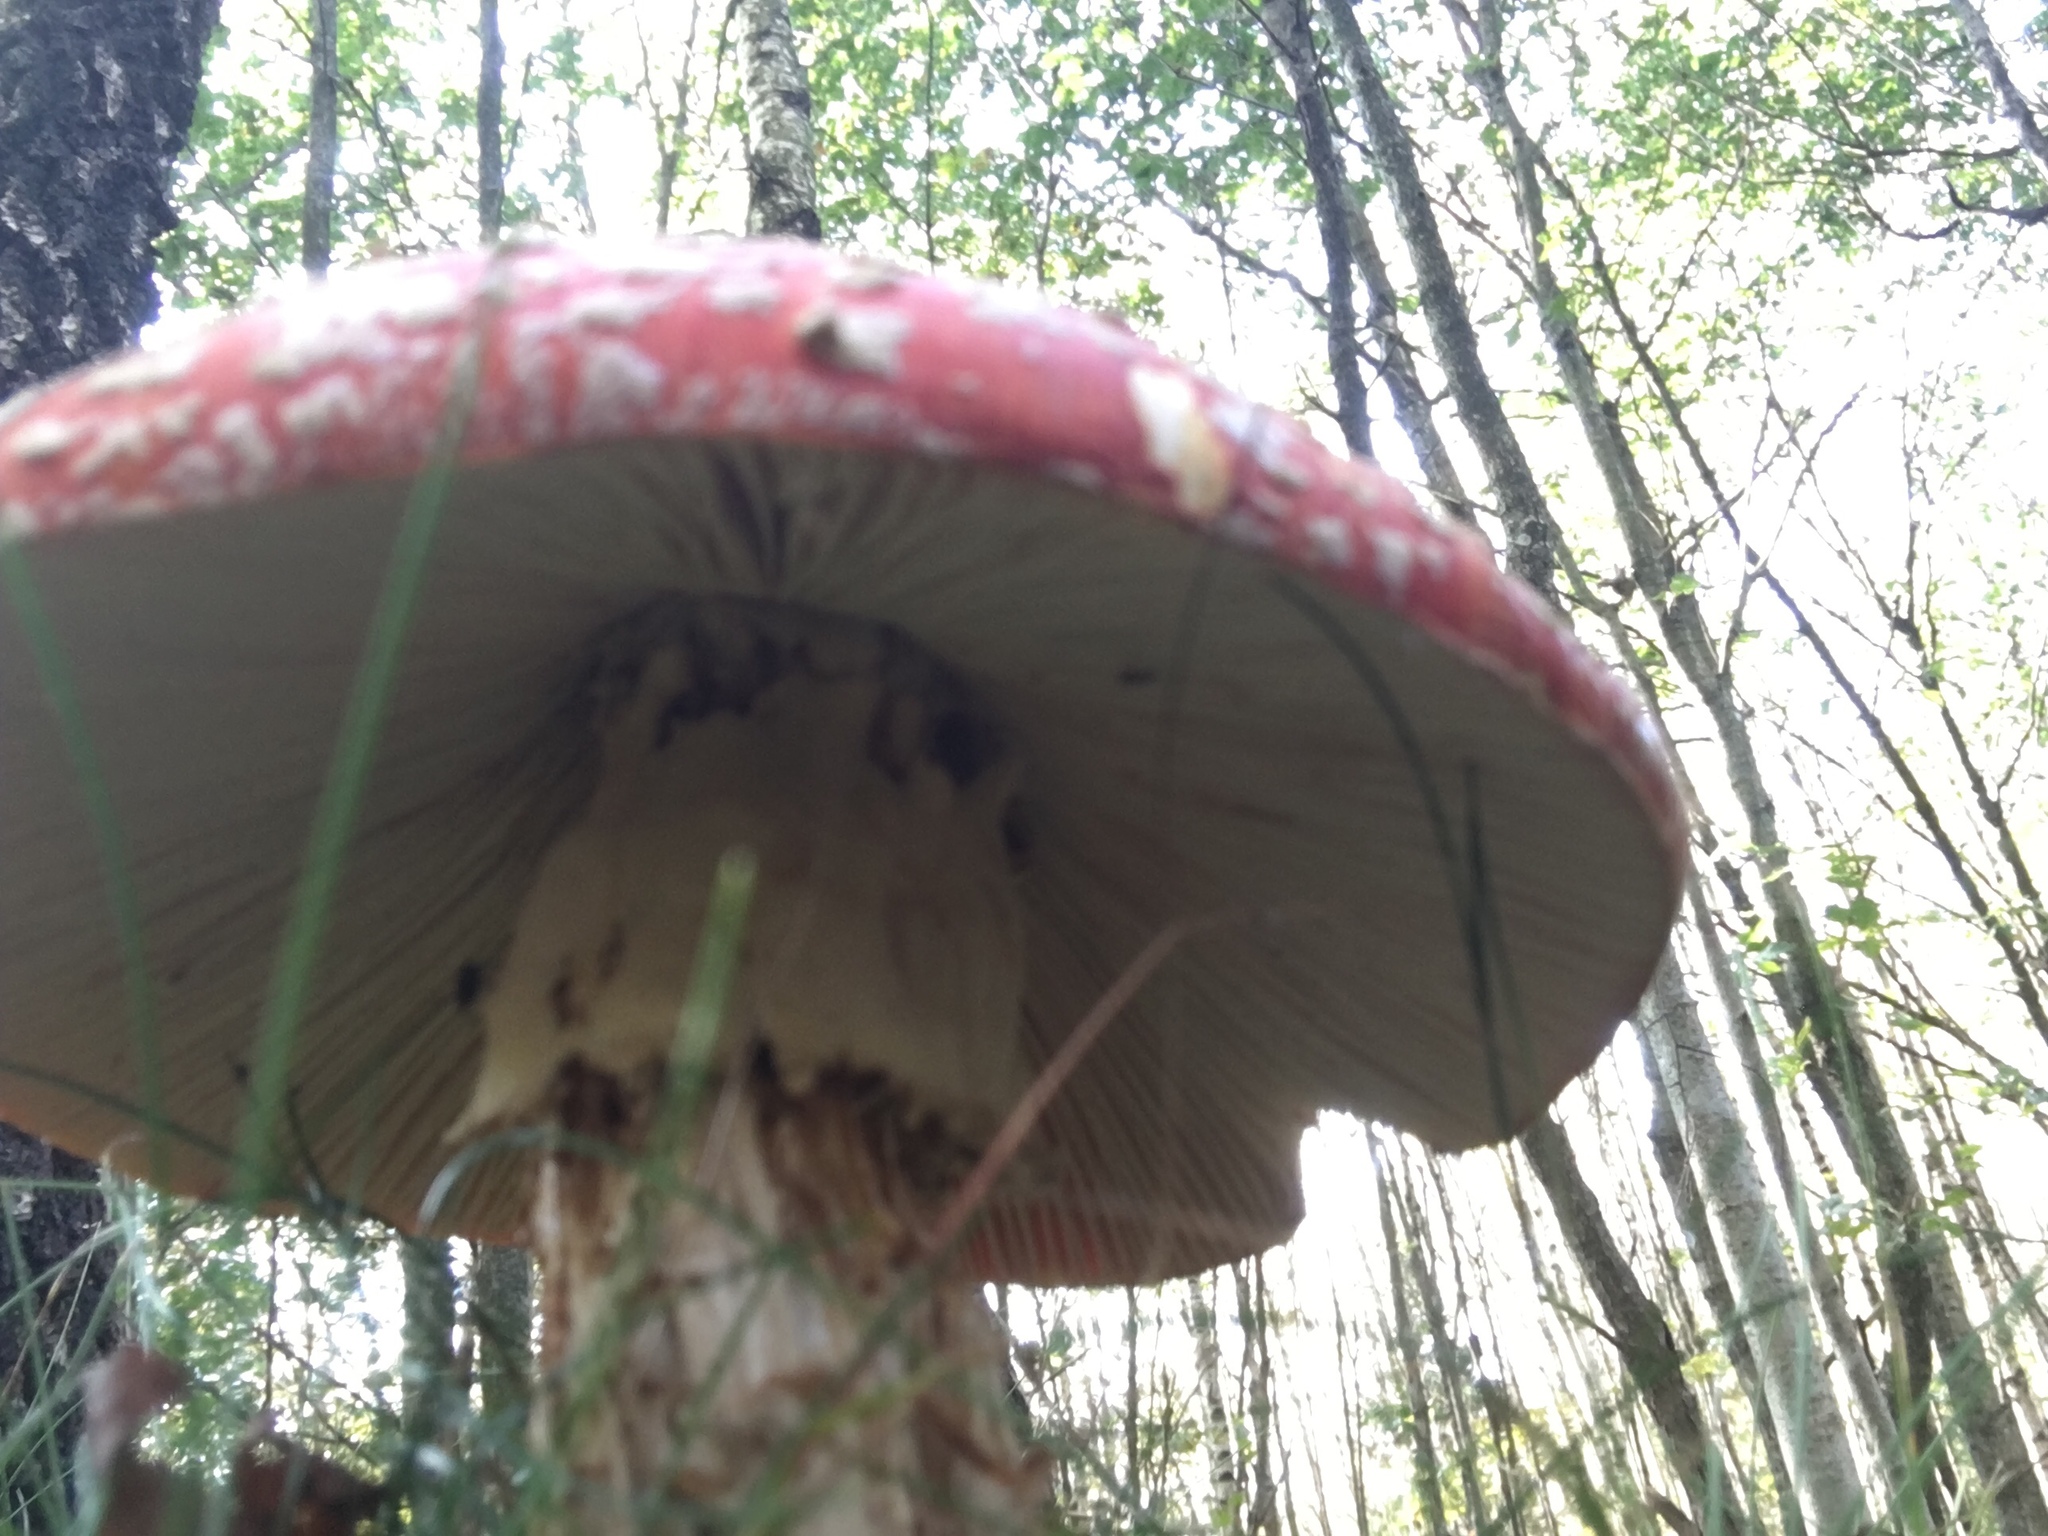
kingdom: Fungi
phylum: Basidiomycota
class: Agaricomycetes
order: Agaricales
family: Amanitaceae
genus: Amanita
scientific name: Amanita muscaria
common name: Fly agaric
